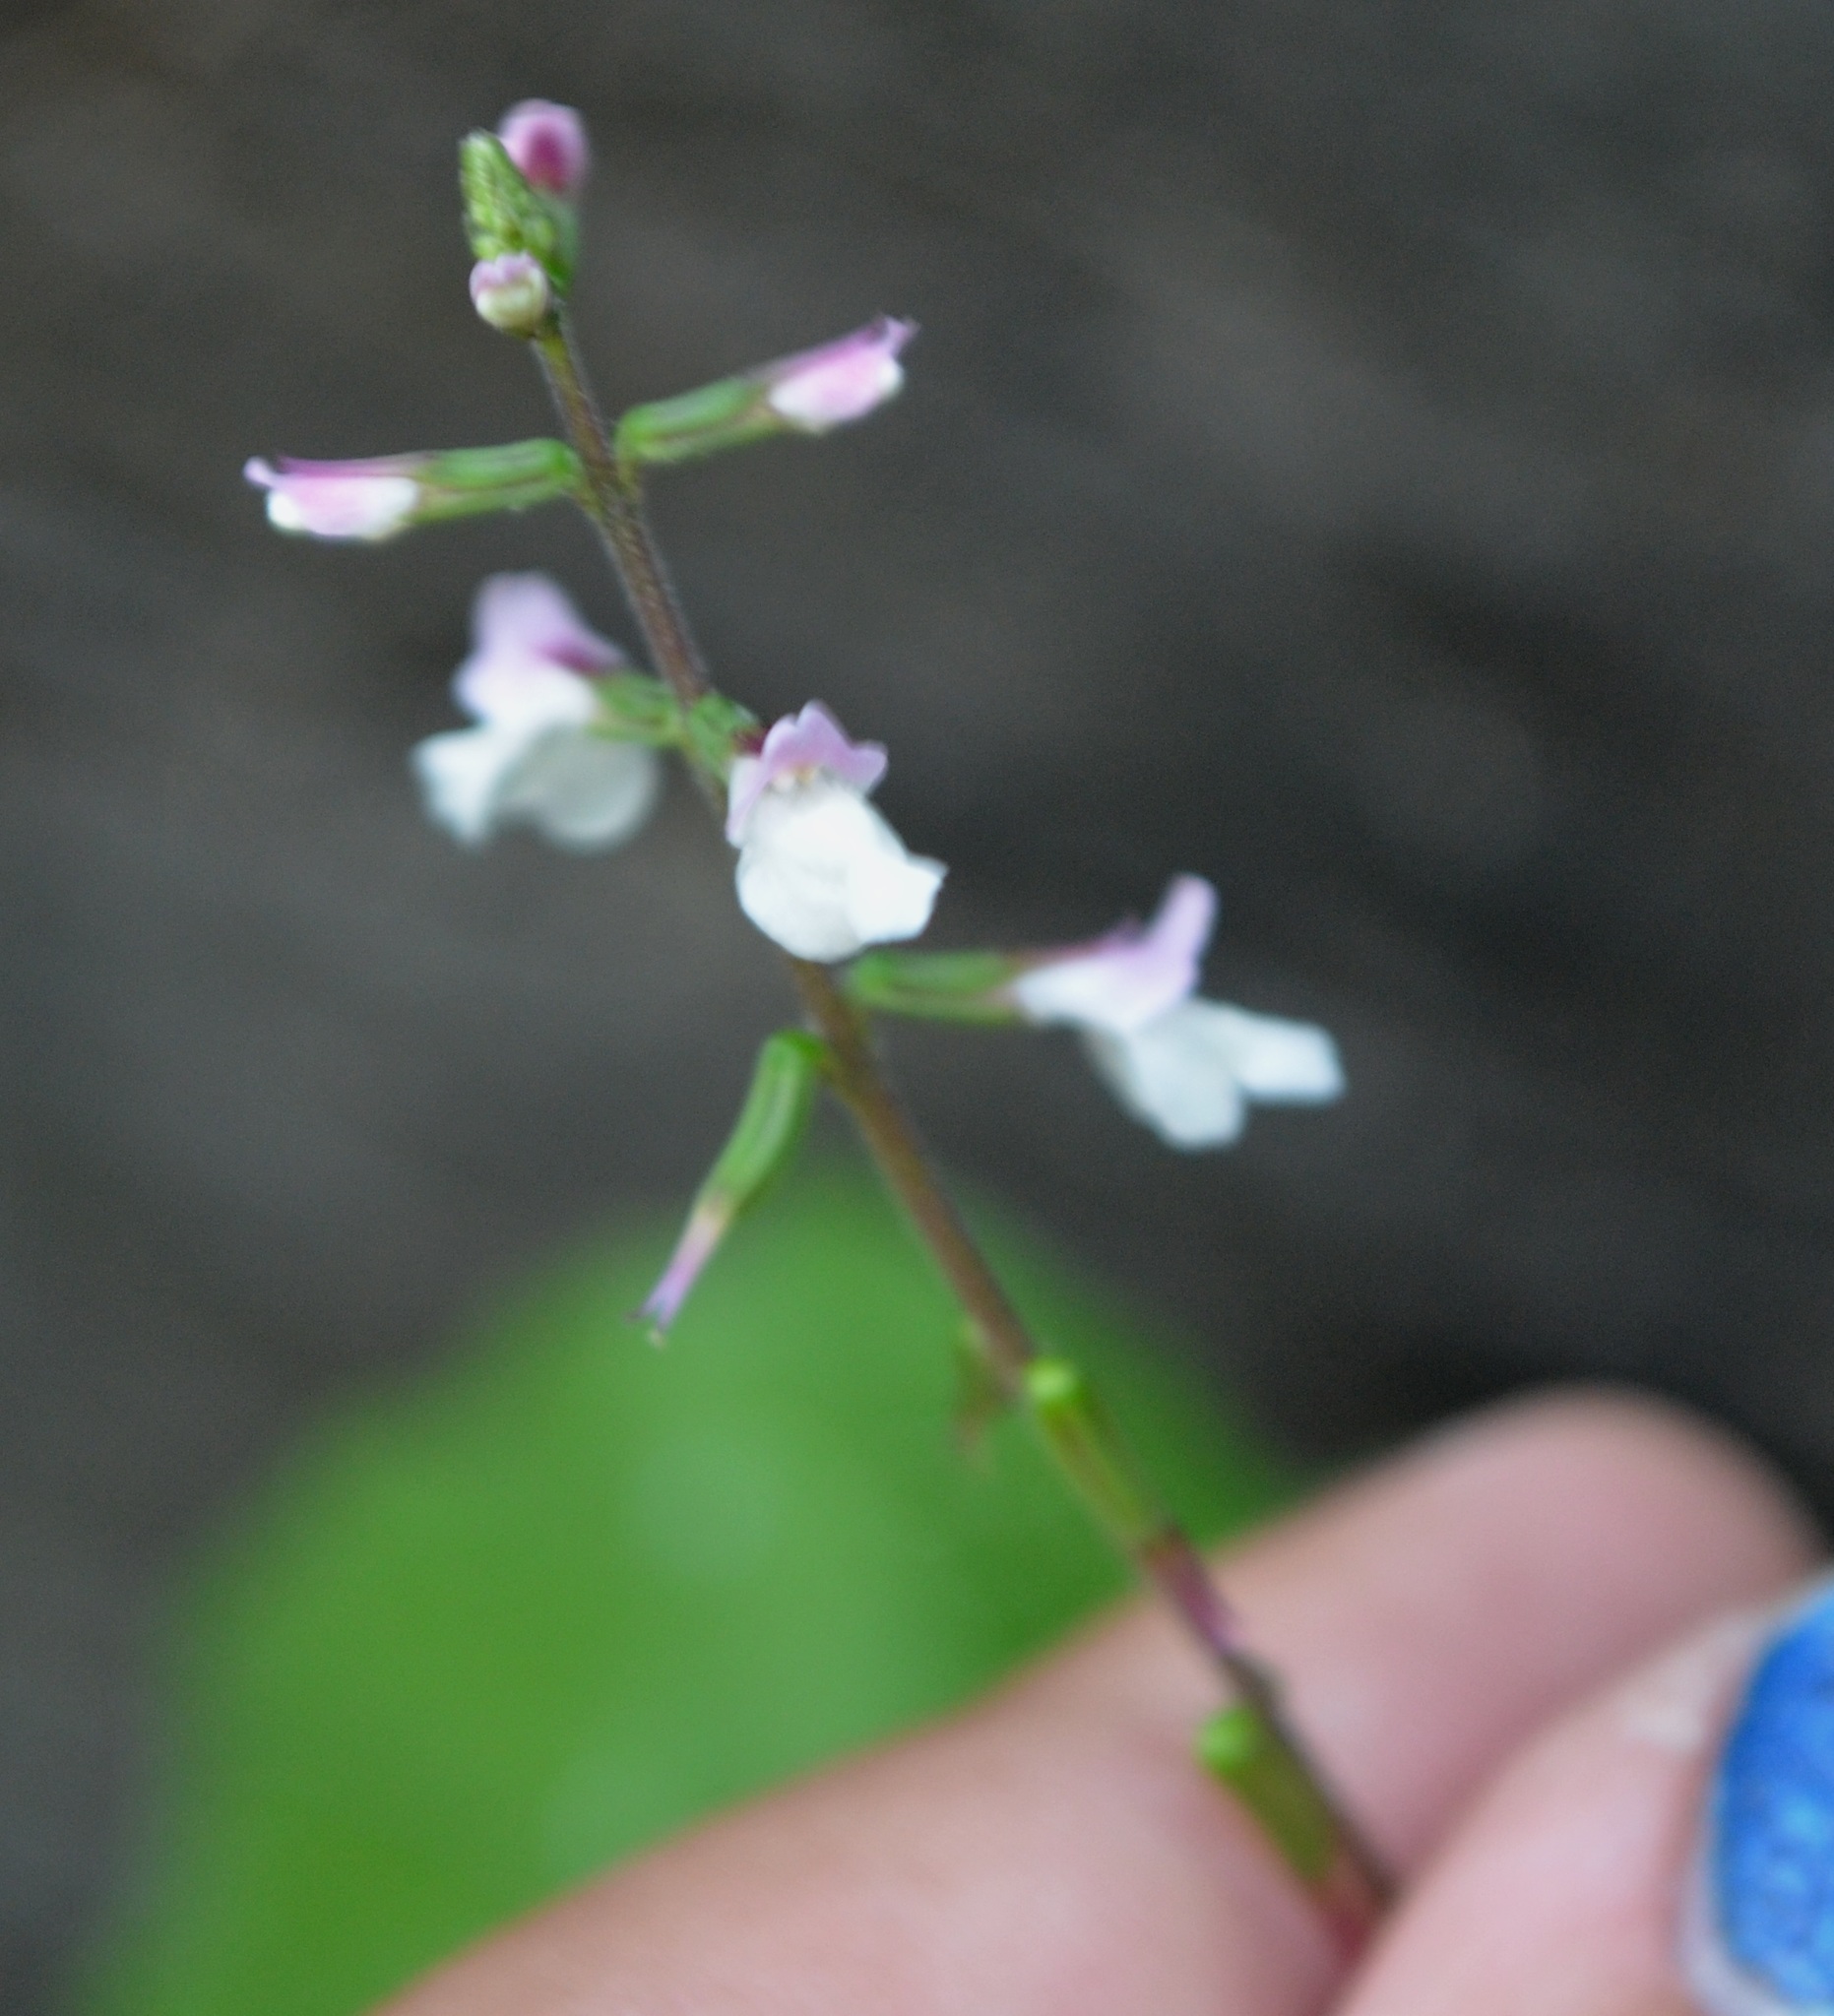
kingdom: Plantae
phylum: Tracheophyta
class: Magnoliopsida
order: Lamiales
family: Phrymaceae
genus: Phryma
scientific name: Phryma leptostachya
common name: American lopseed
